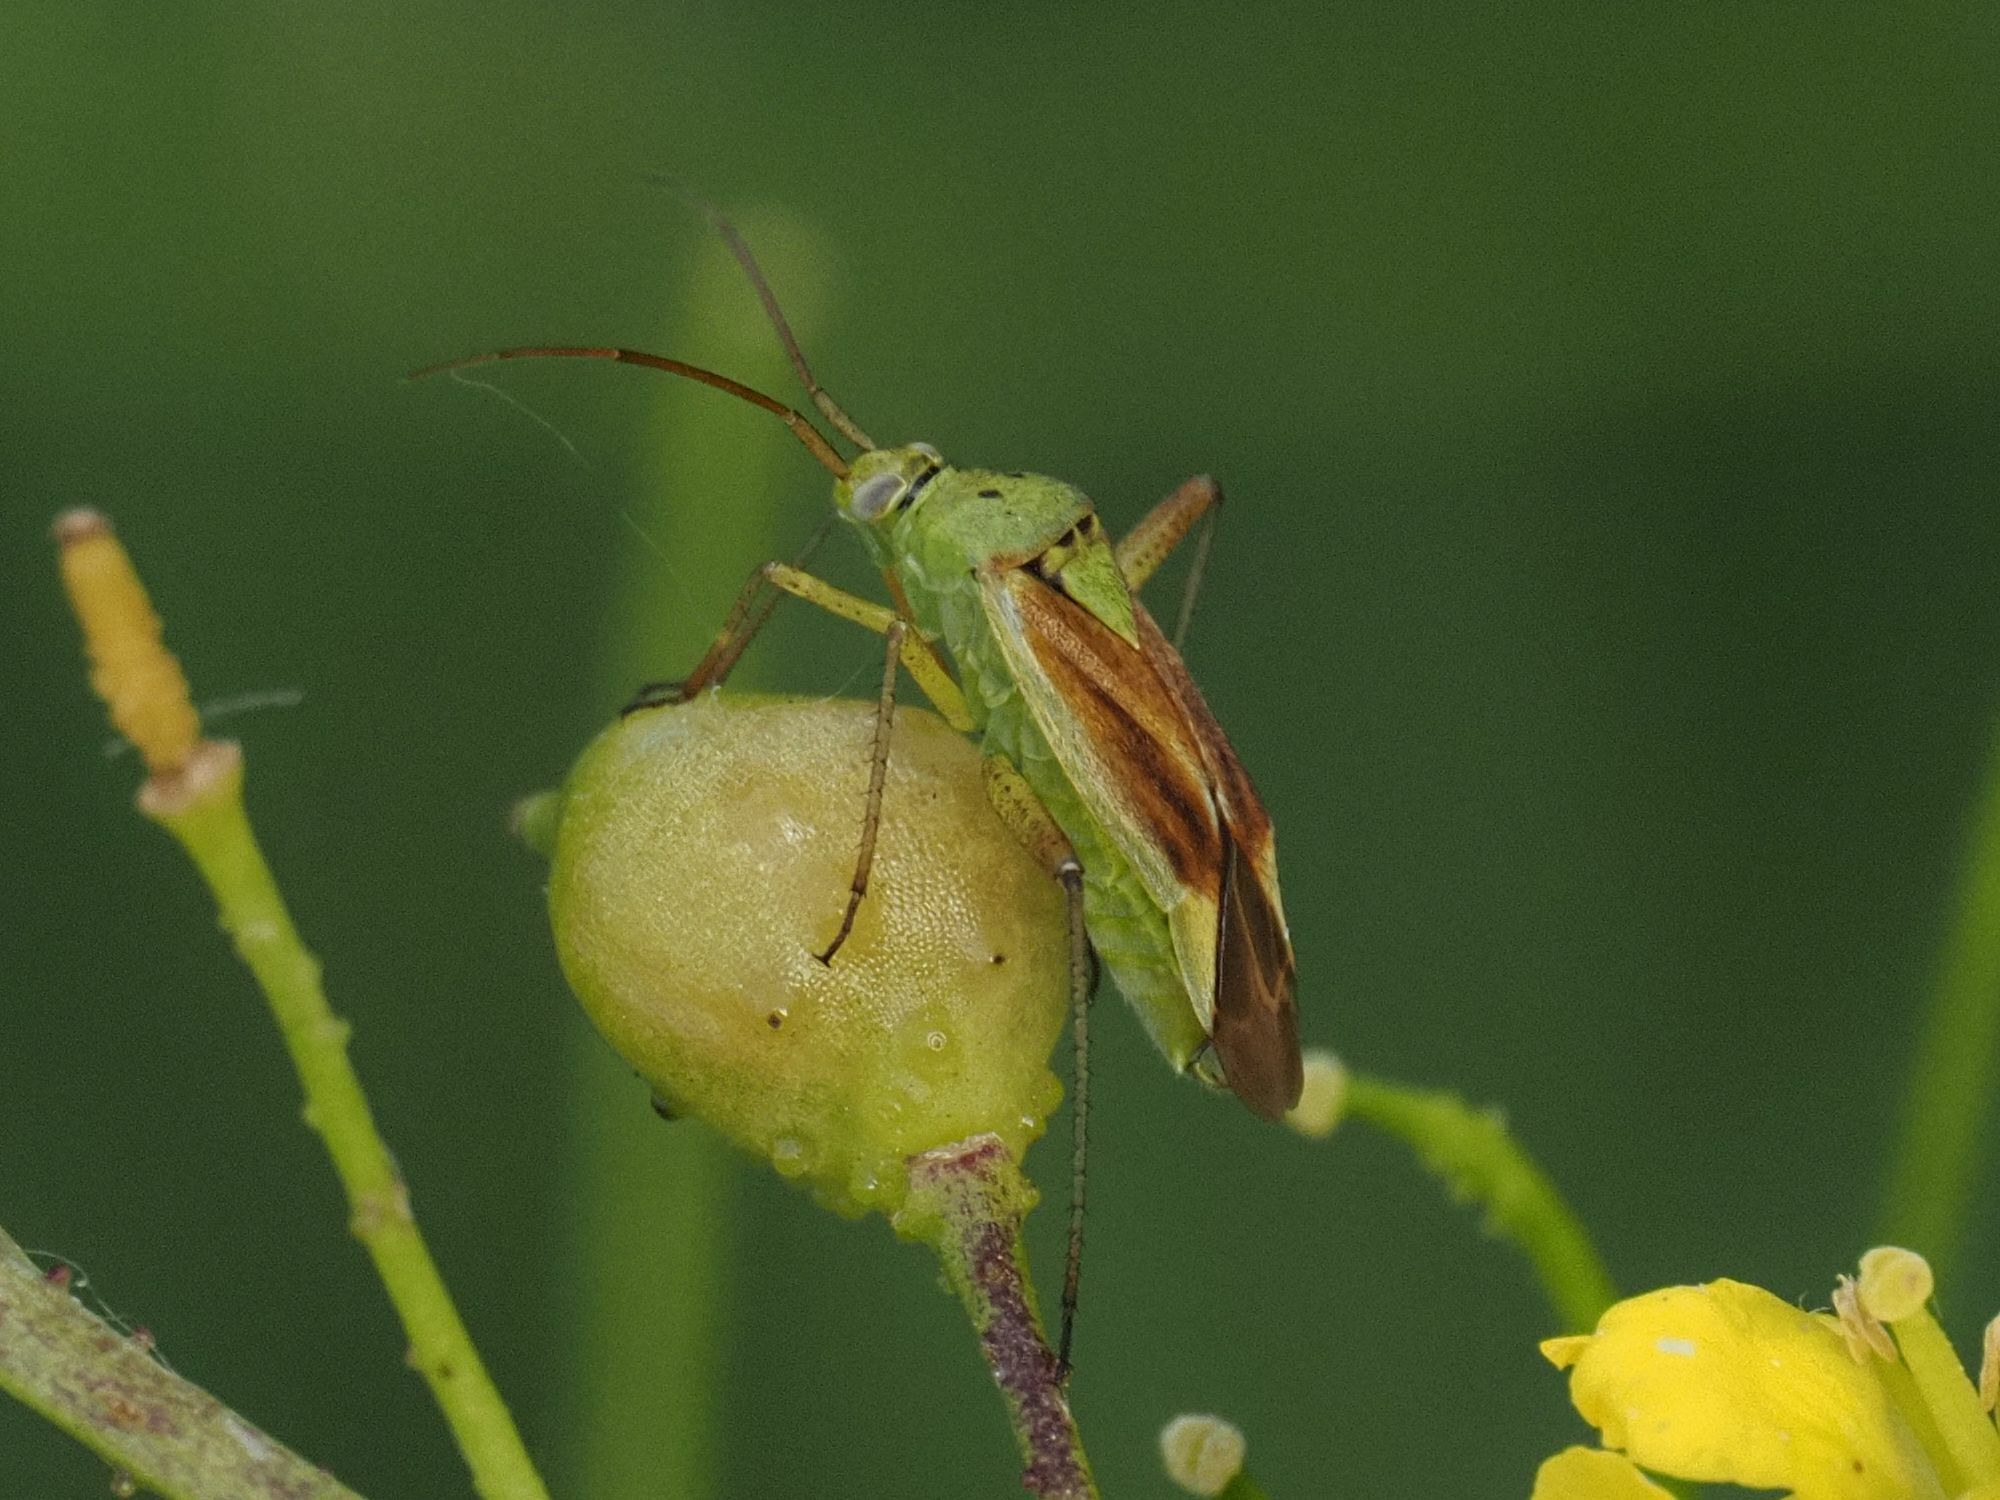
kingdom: Animalia
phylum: Arthropoda
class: Insecta
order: Hemiptera
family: Miridae
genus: Closterotomus
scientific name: Closterotomus norvegicus
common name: Plant bug
